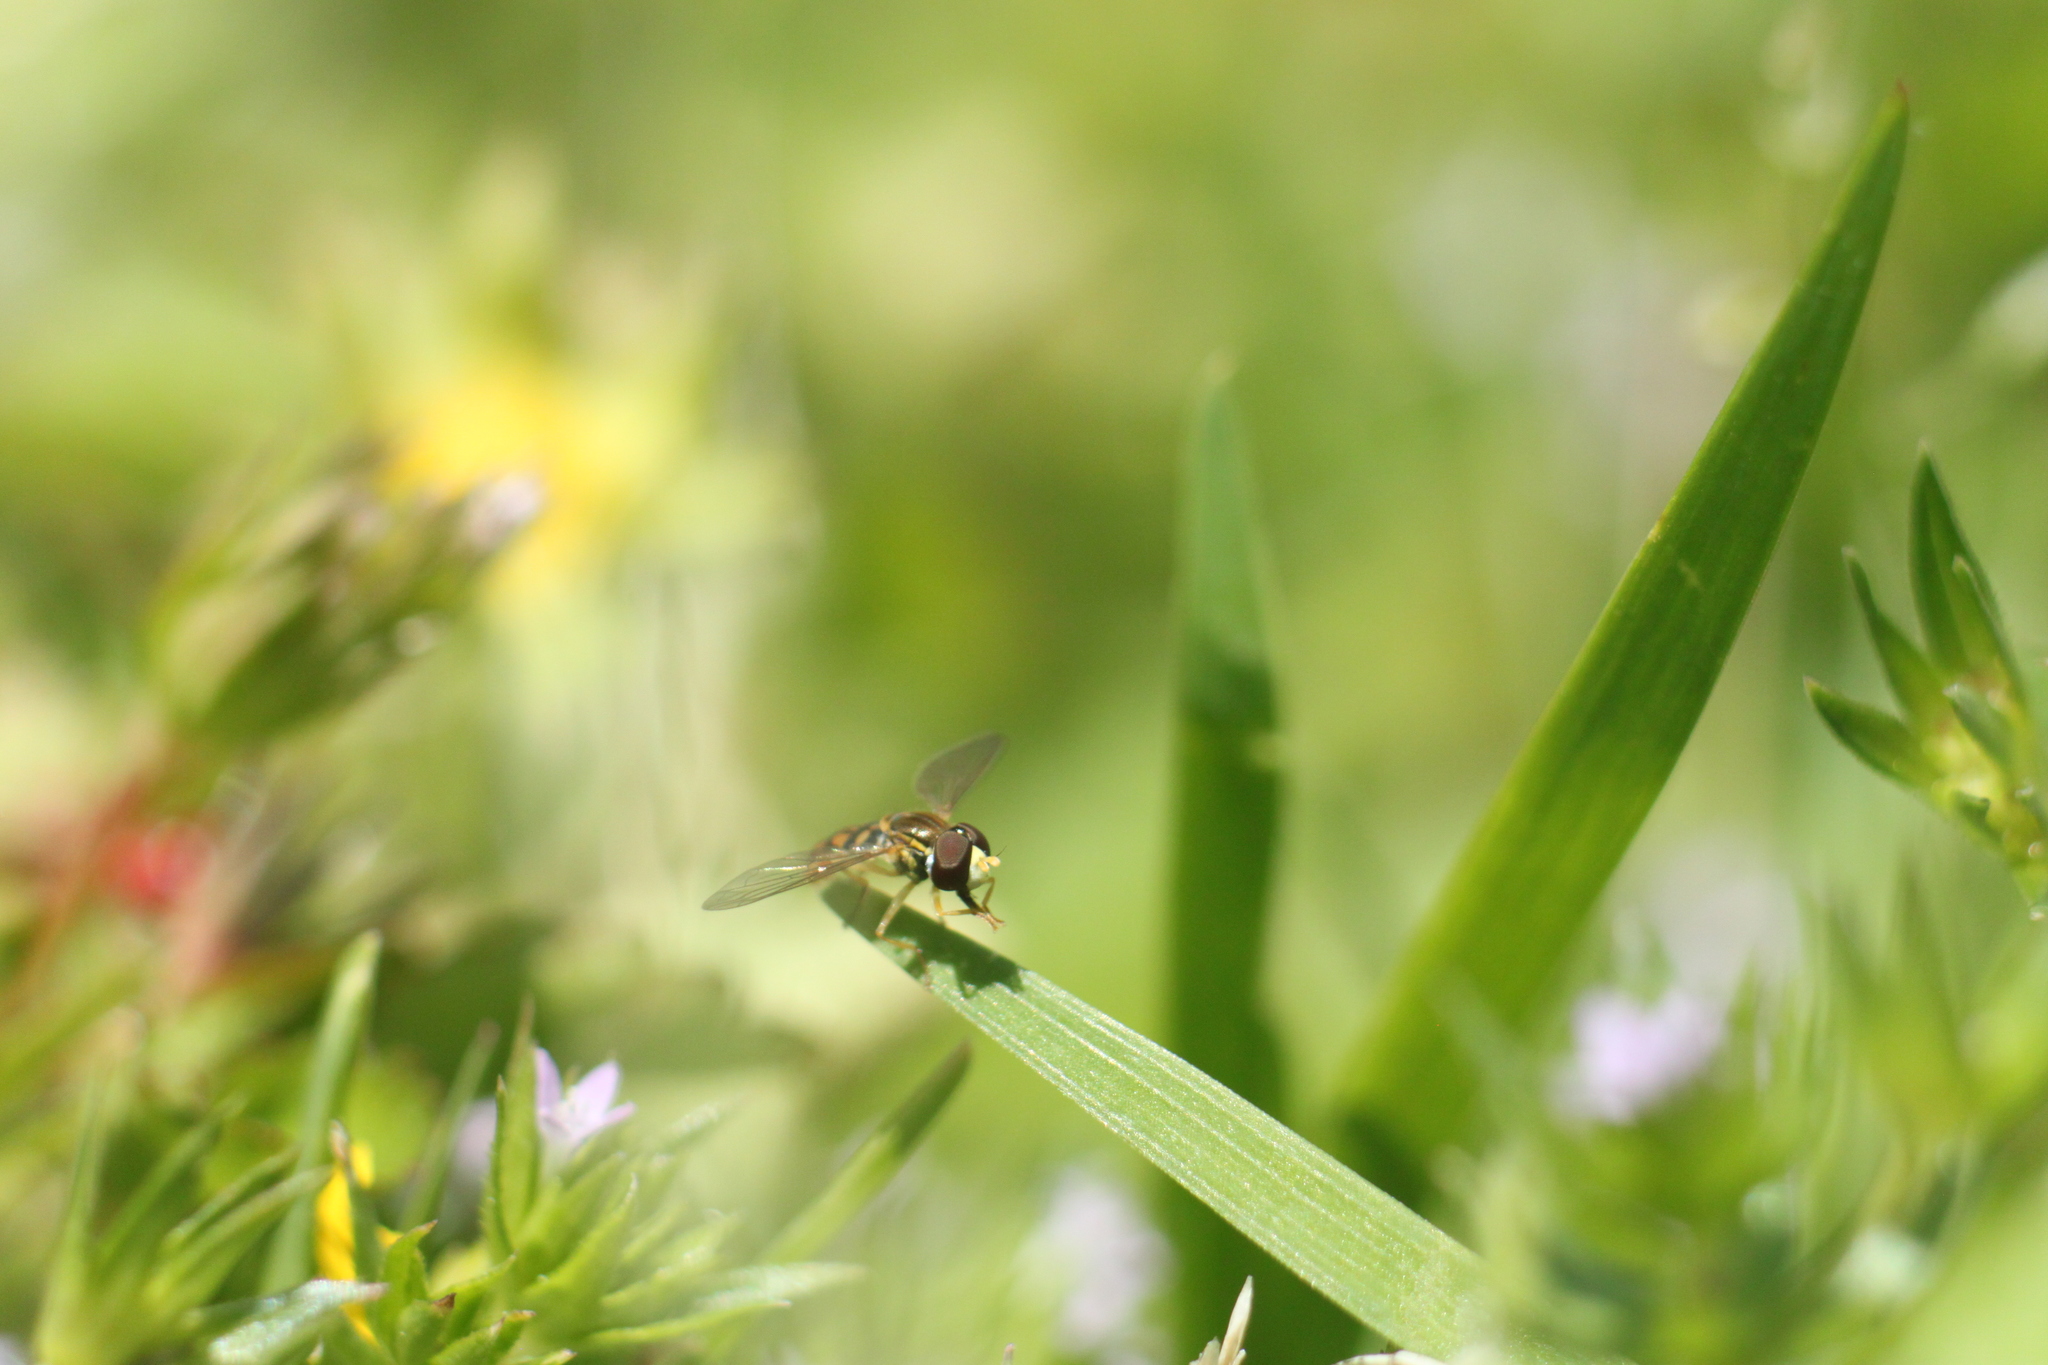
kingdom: Animalia
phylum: Arthropoda
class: Insecta
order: Diptera
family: Syrphidae
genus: Toxomerus
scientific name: Toxomerus marginatus
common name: Syrphid fly
